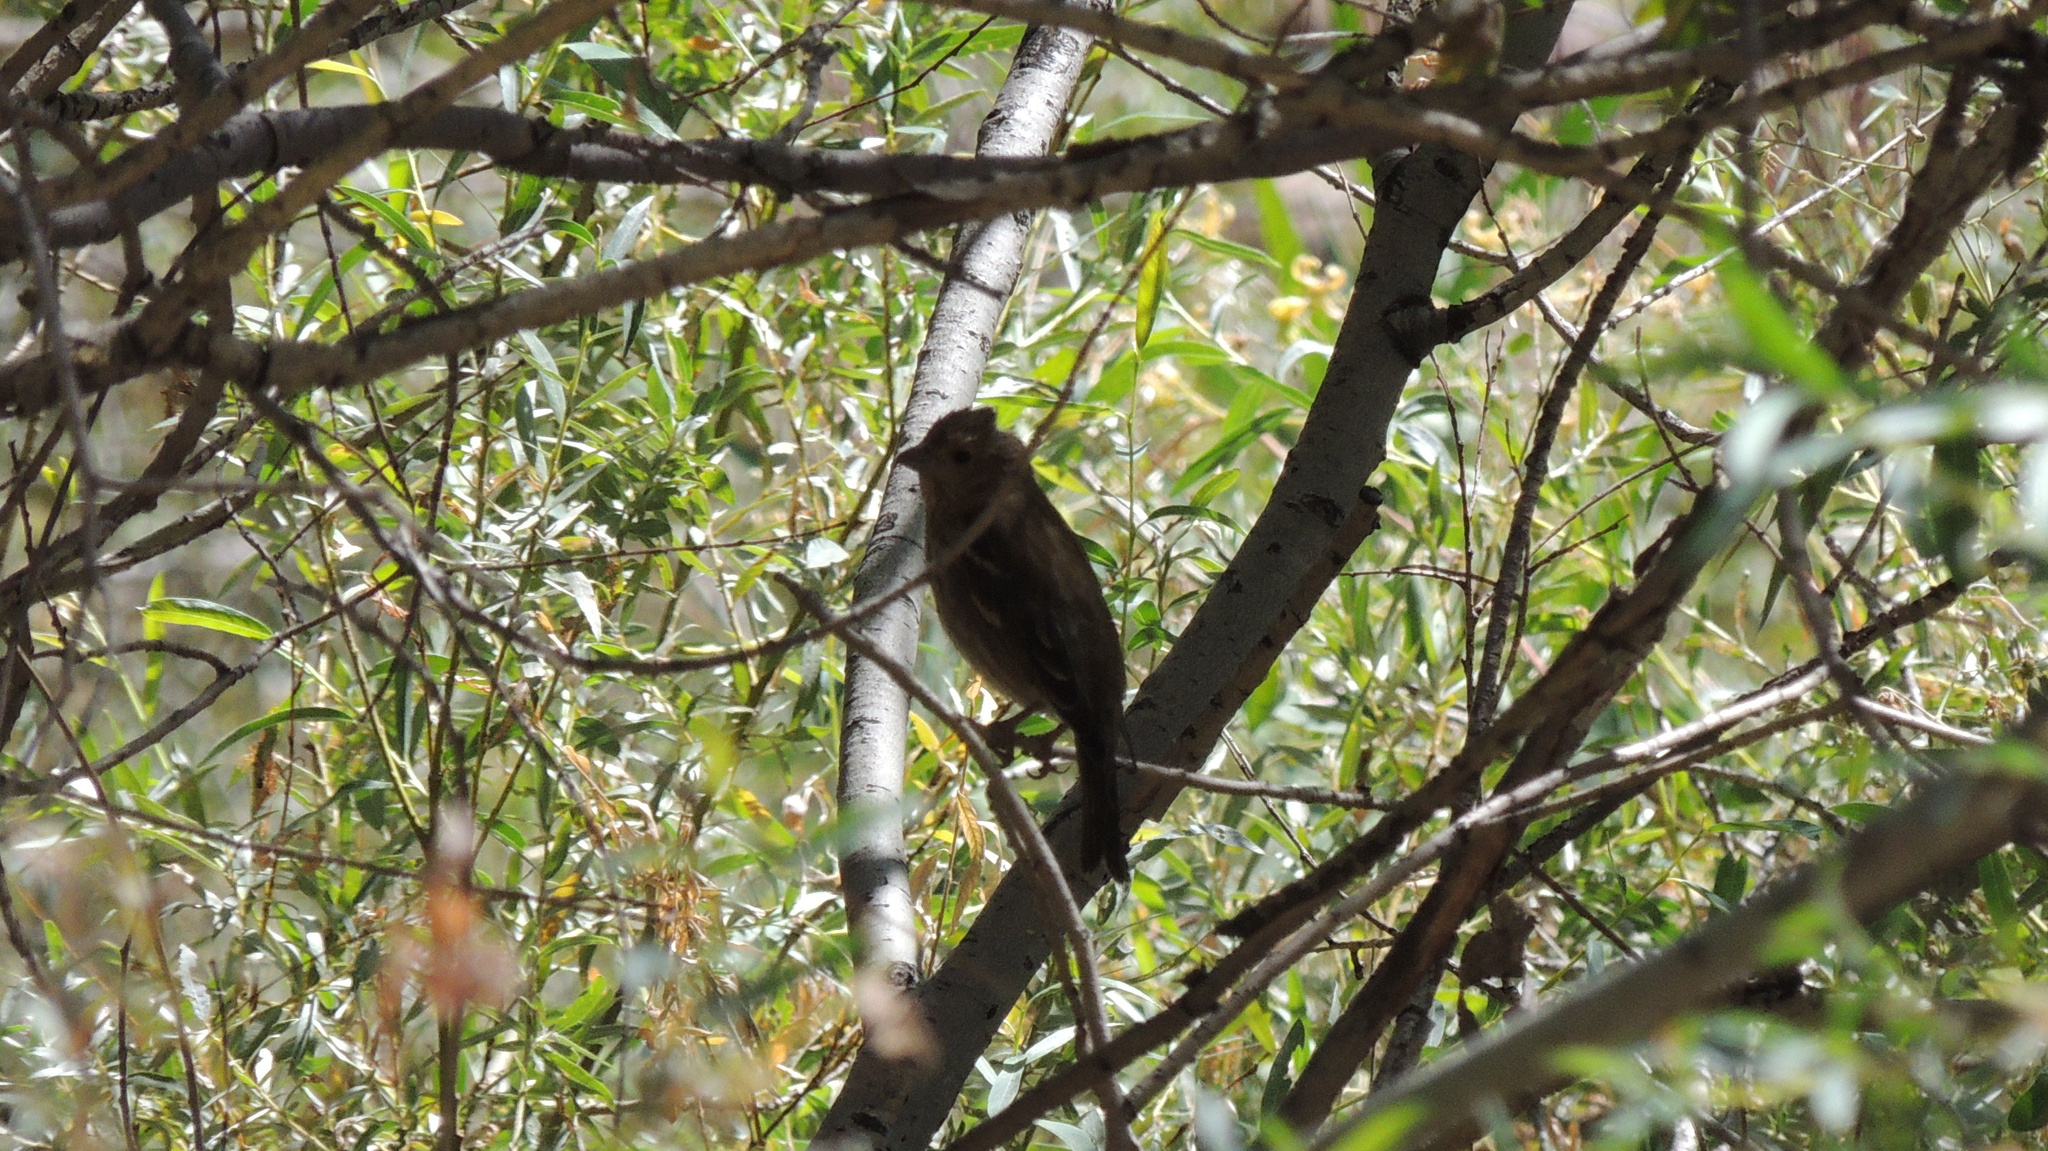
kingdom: Animalia
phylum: Chordata
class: Aves
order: Passeriformes
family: Fringillidae
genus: Carpodacus
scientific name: Carpodacus erythrinus
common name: Common rosefinch
